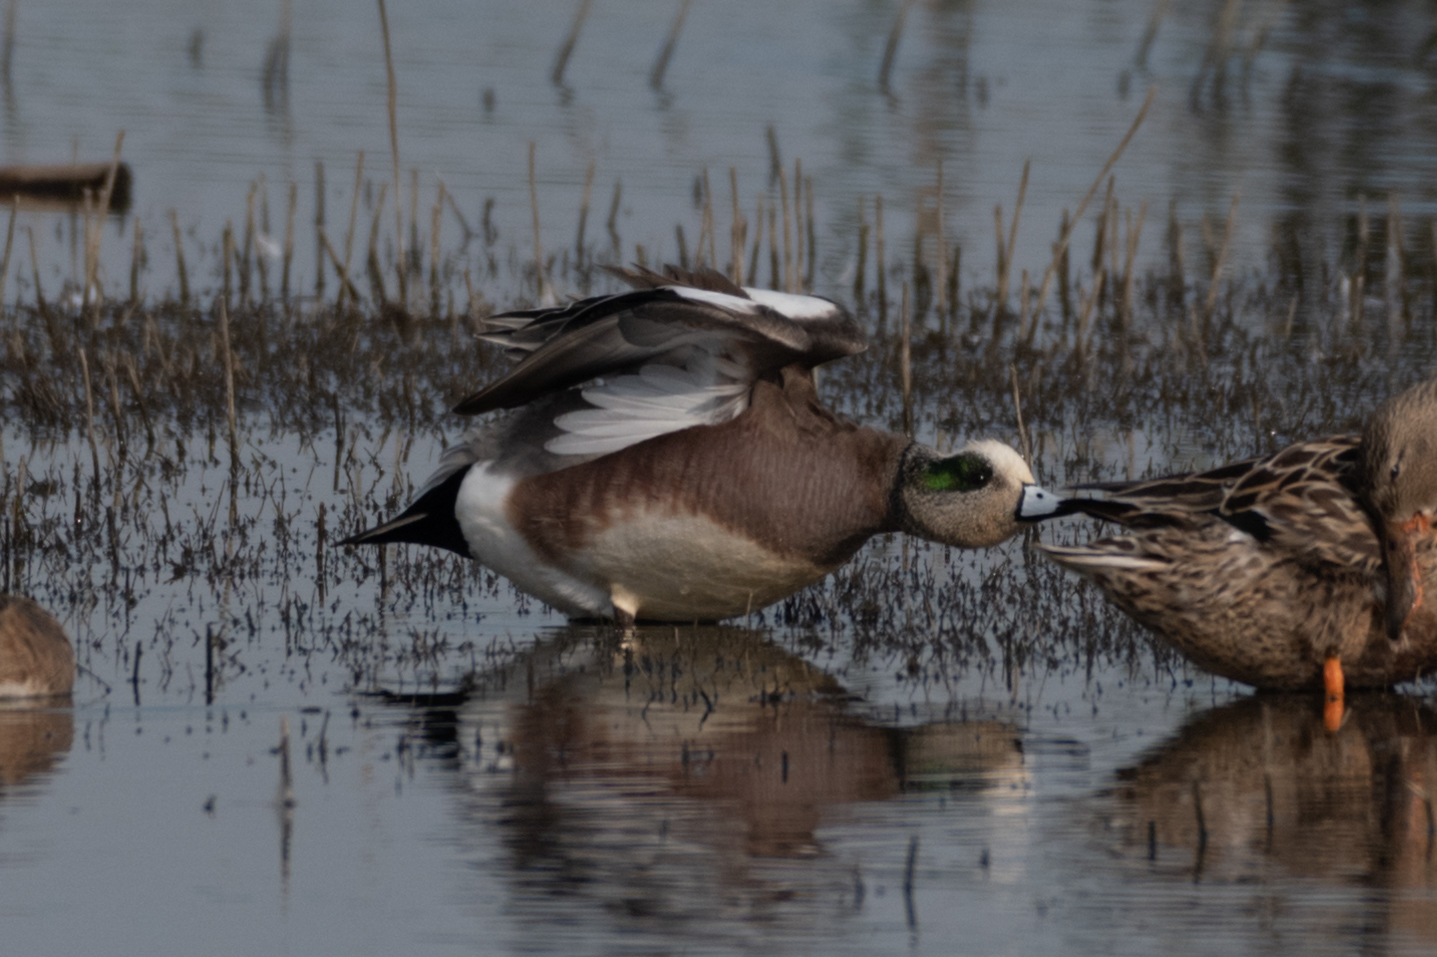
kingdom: Animalia
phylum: Chordata
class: Aves
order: Anseriformes
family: Anatidae
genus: Mareca
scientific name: Mareca americana
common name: American wigeon
